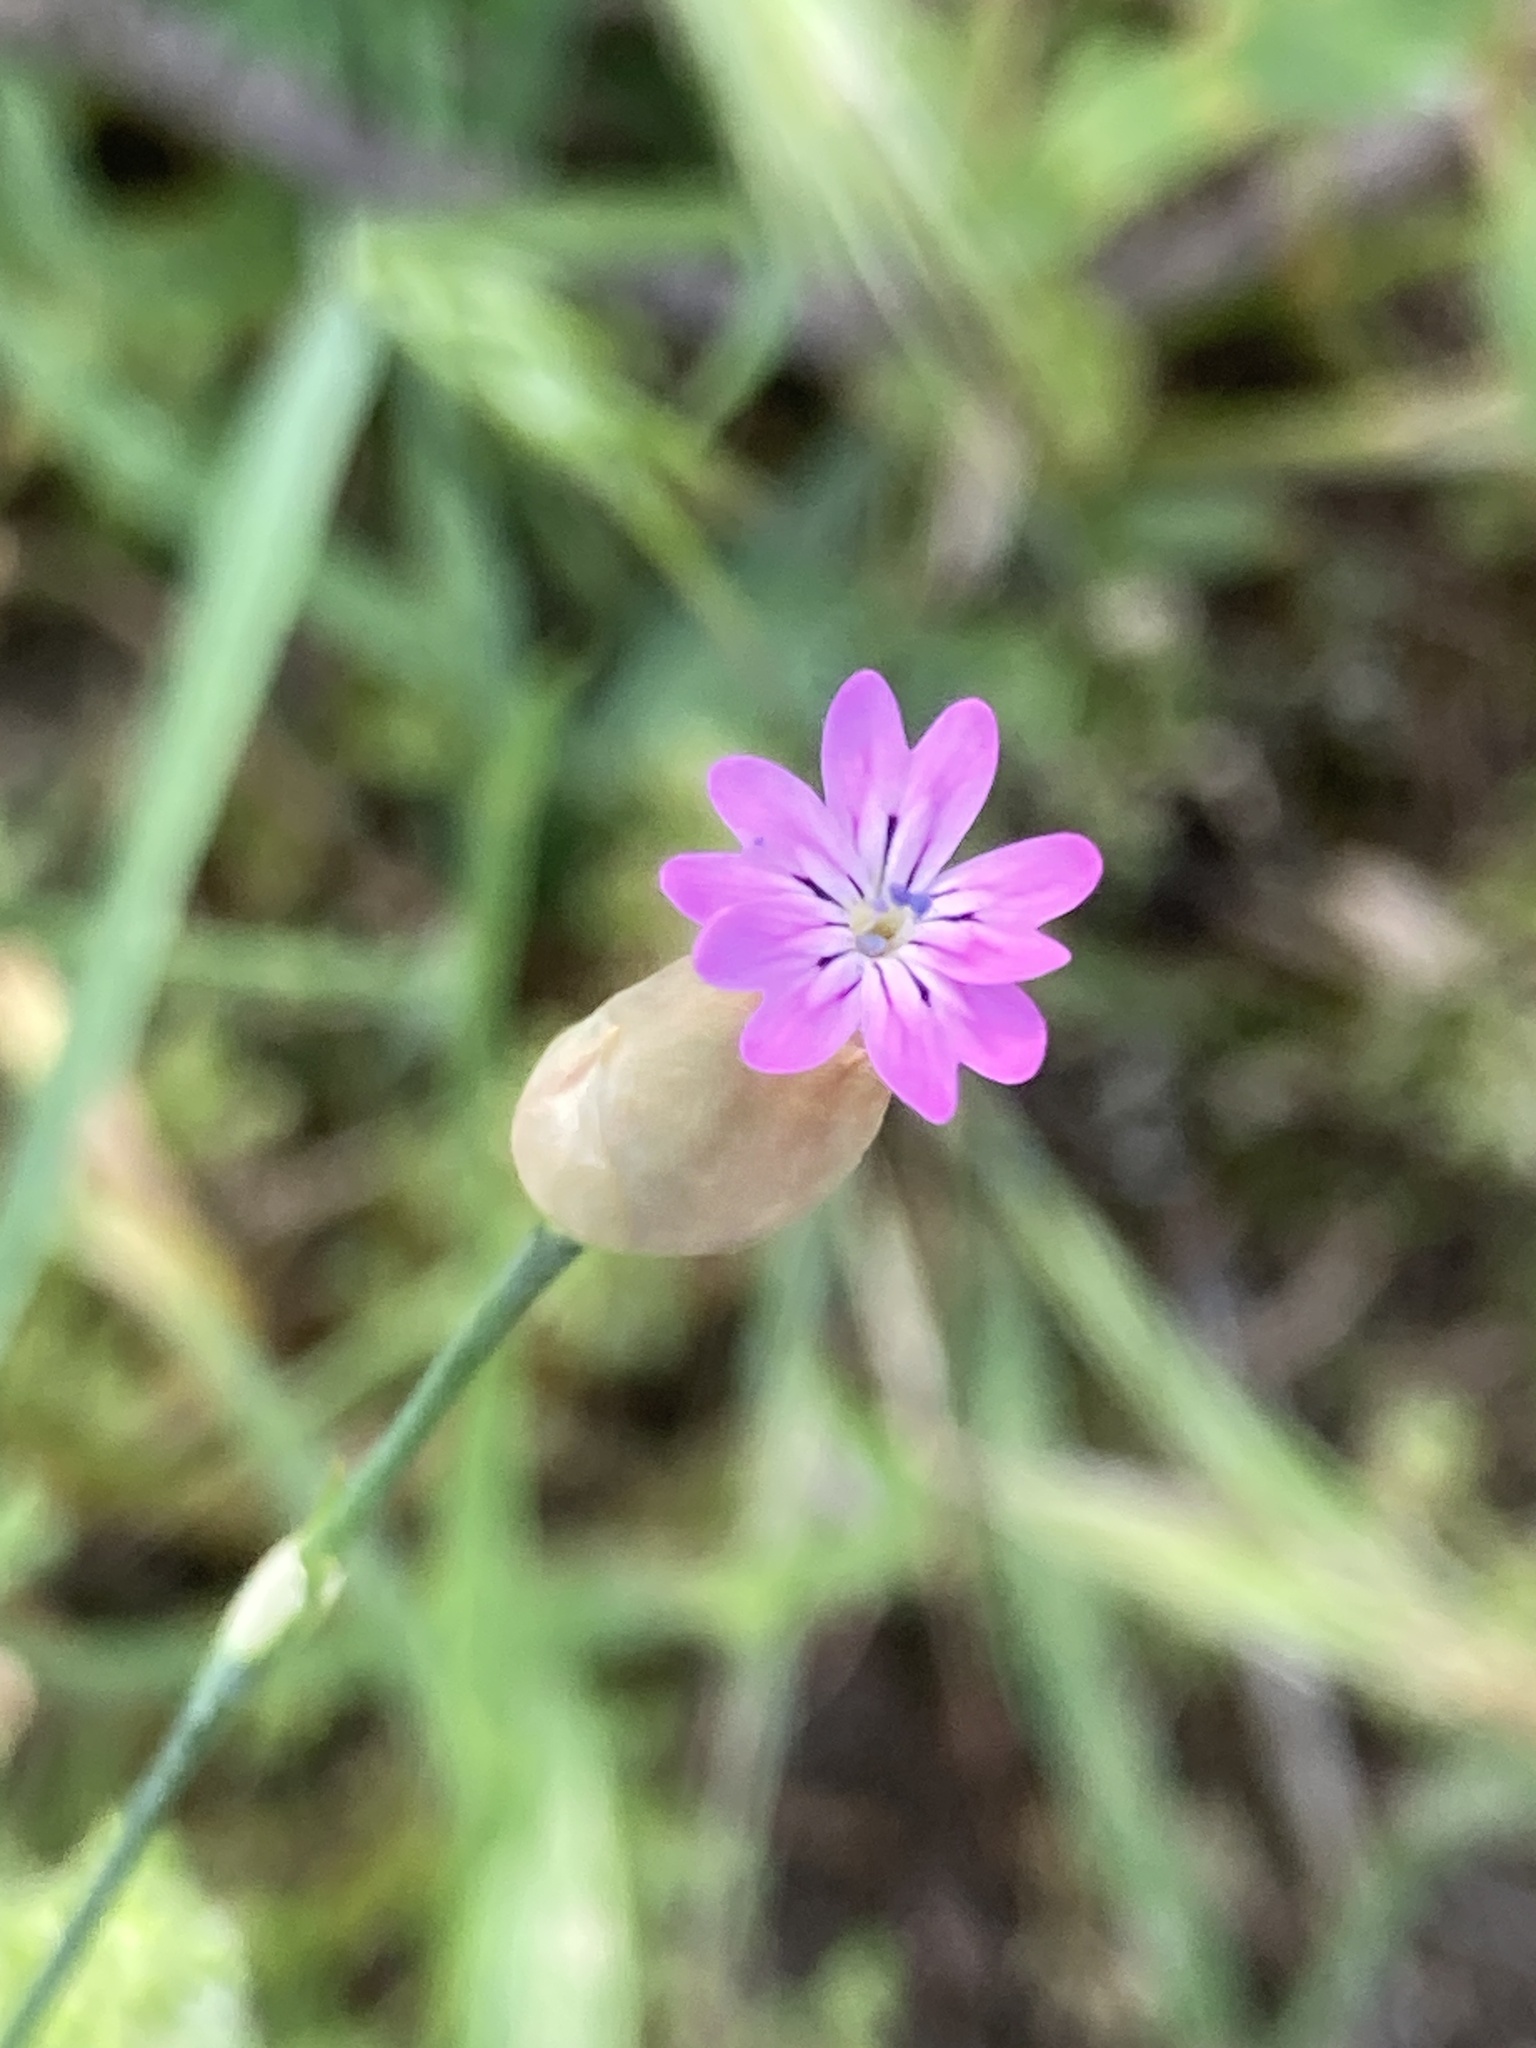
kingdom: Plantae
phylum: Tracheophyta
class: Magnoliopsida
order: Caryophyllales
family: Caryophyllaceae
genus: Petrorhagia
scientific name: Petrorhagia dubia
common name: Hairypink
